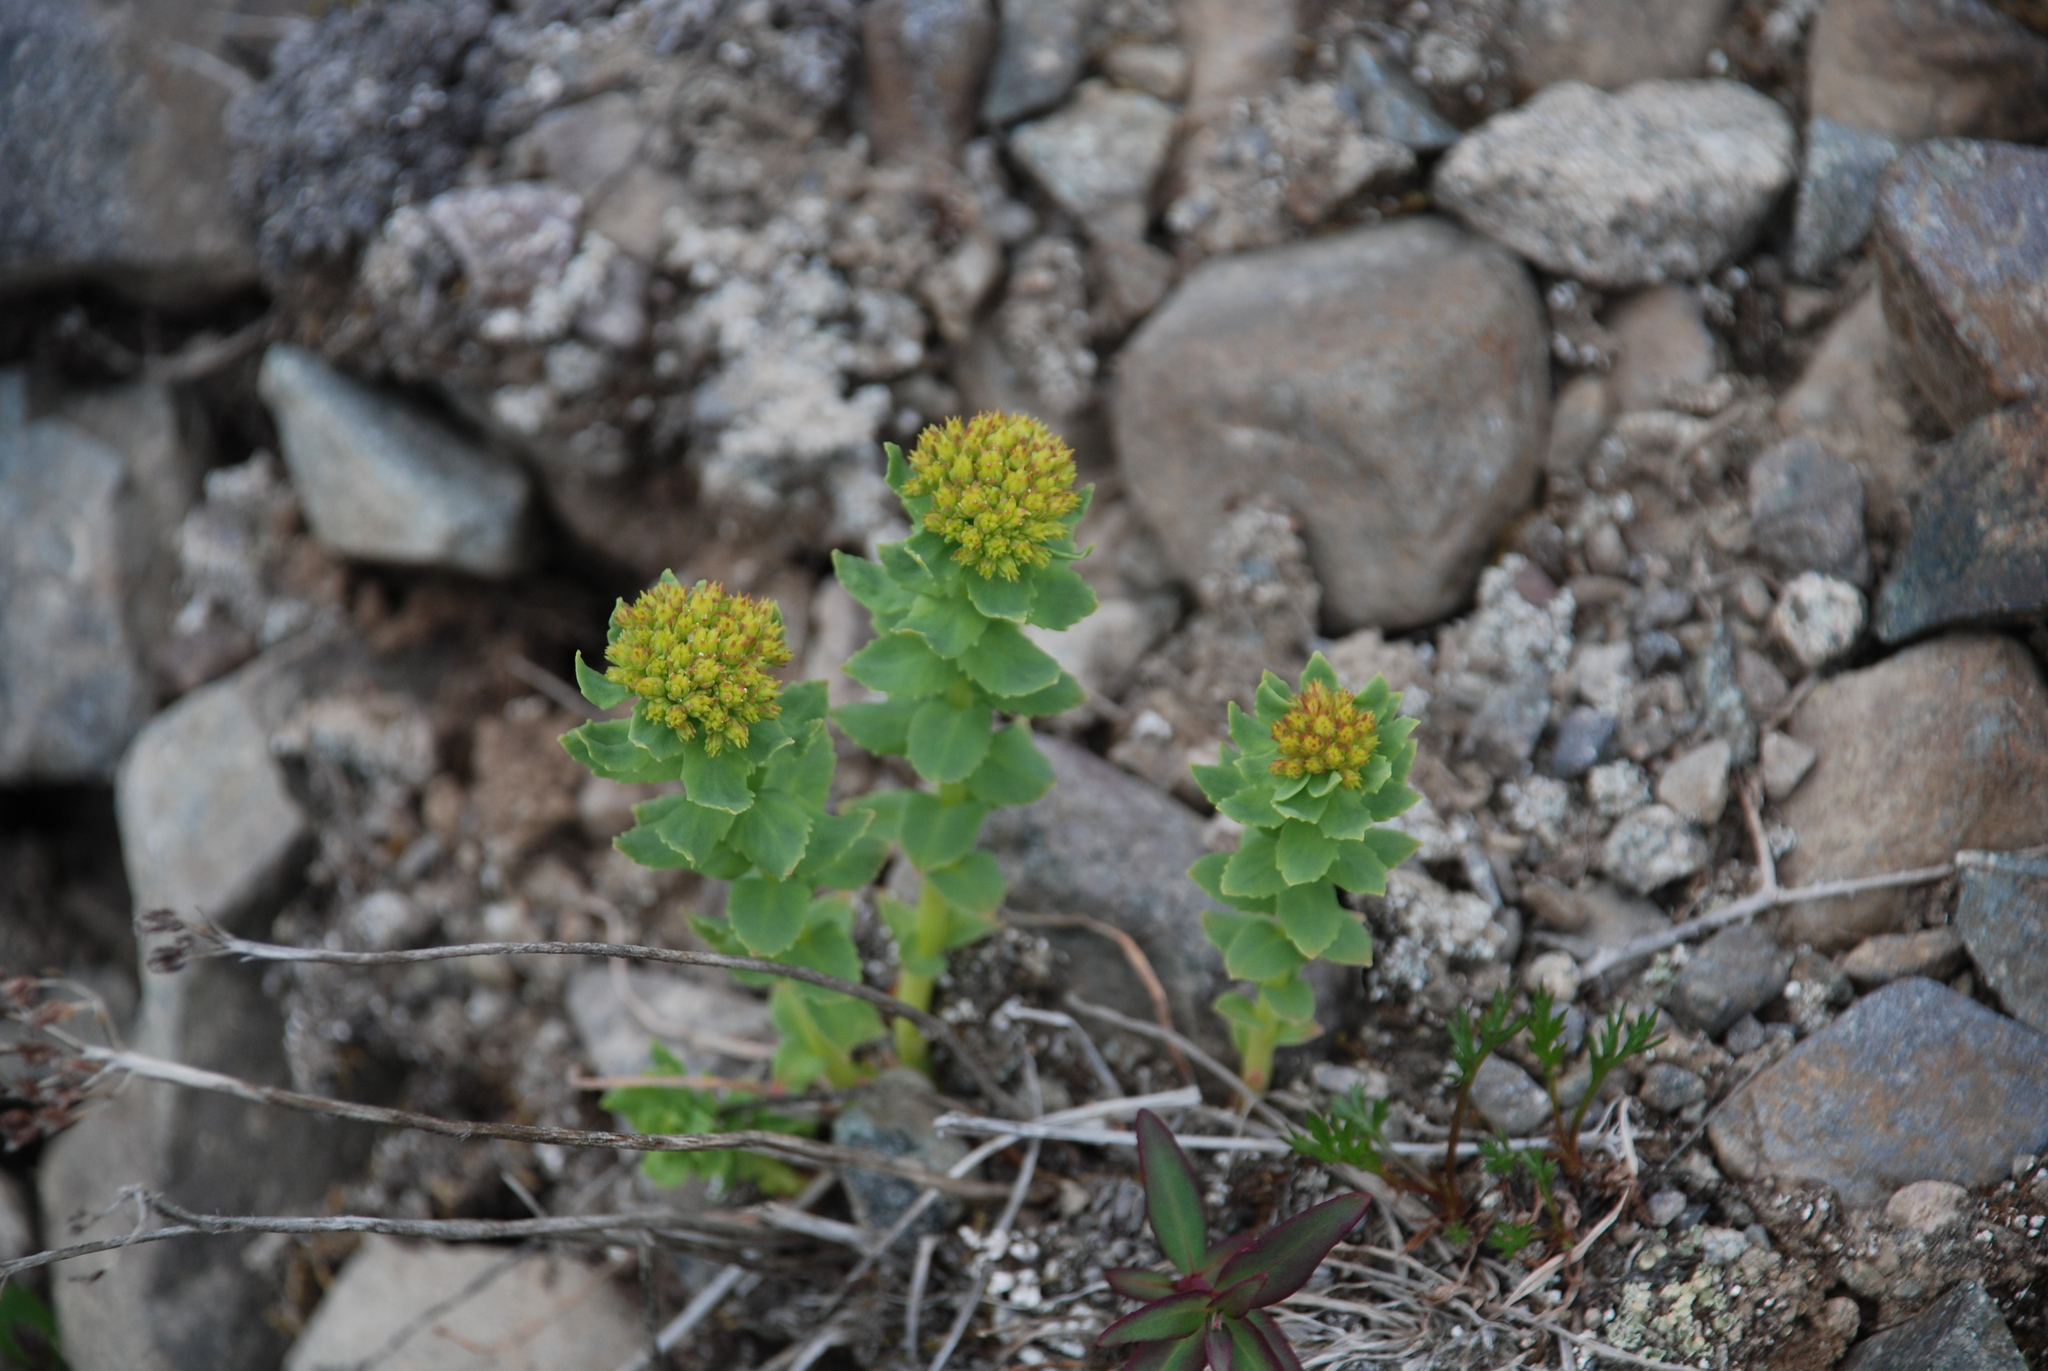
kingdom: Plantae
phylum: Tracheophyta
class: Magnoliopsida
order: Saxifragales
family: Crassulaceae
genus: Rhodiola
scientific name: Rhodiola rosea
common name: Roseroot
